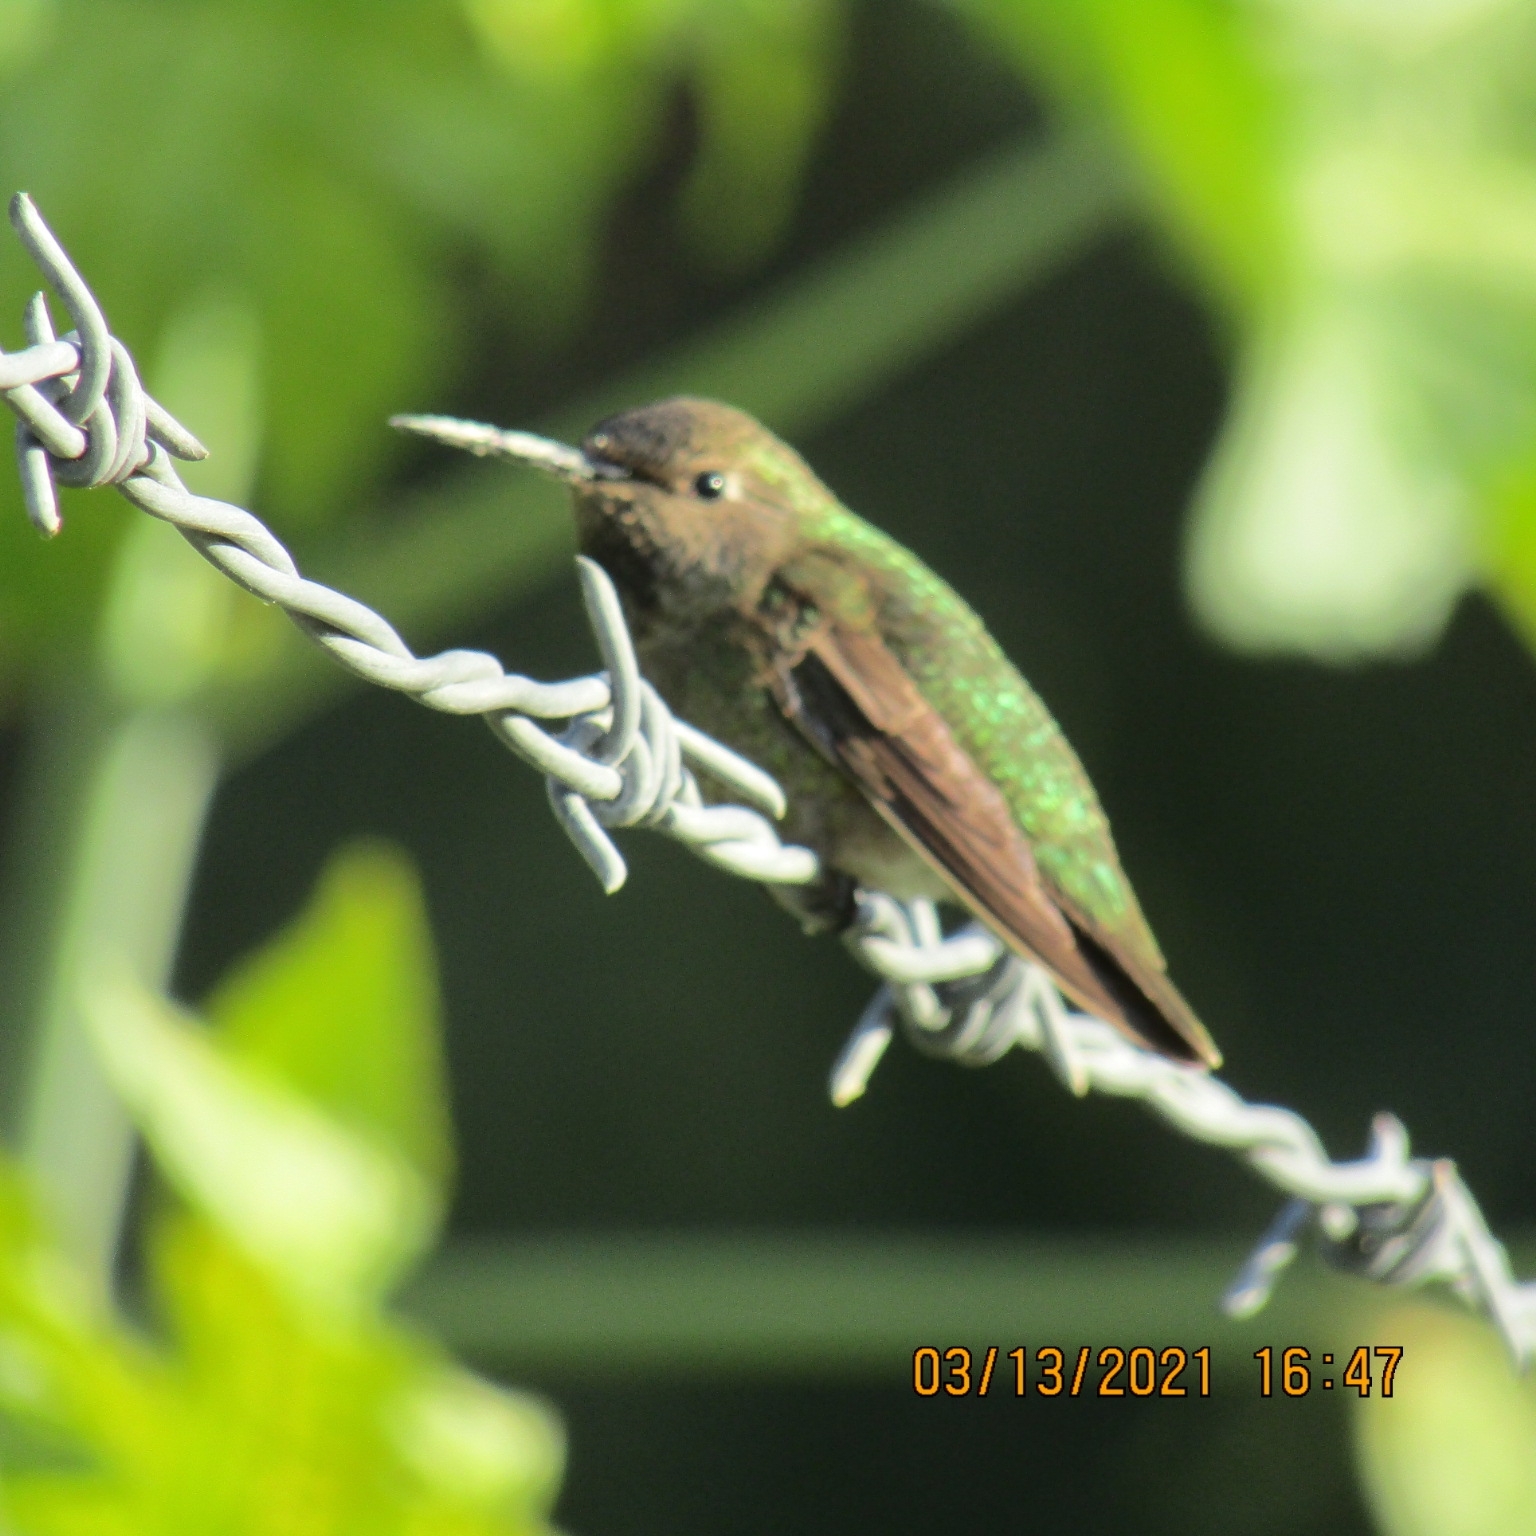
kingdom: Animalia
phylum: Chordata
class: Aves
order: Apodiformes
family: Trochilidae
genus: Calypte
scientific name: Calypte anna
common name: Anna's hummingbird
